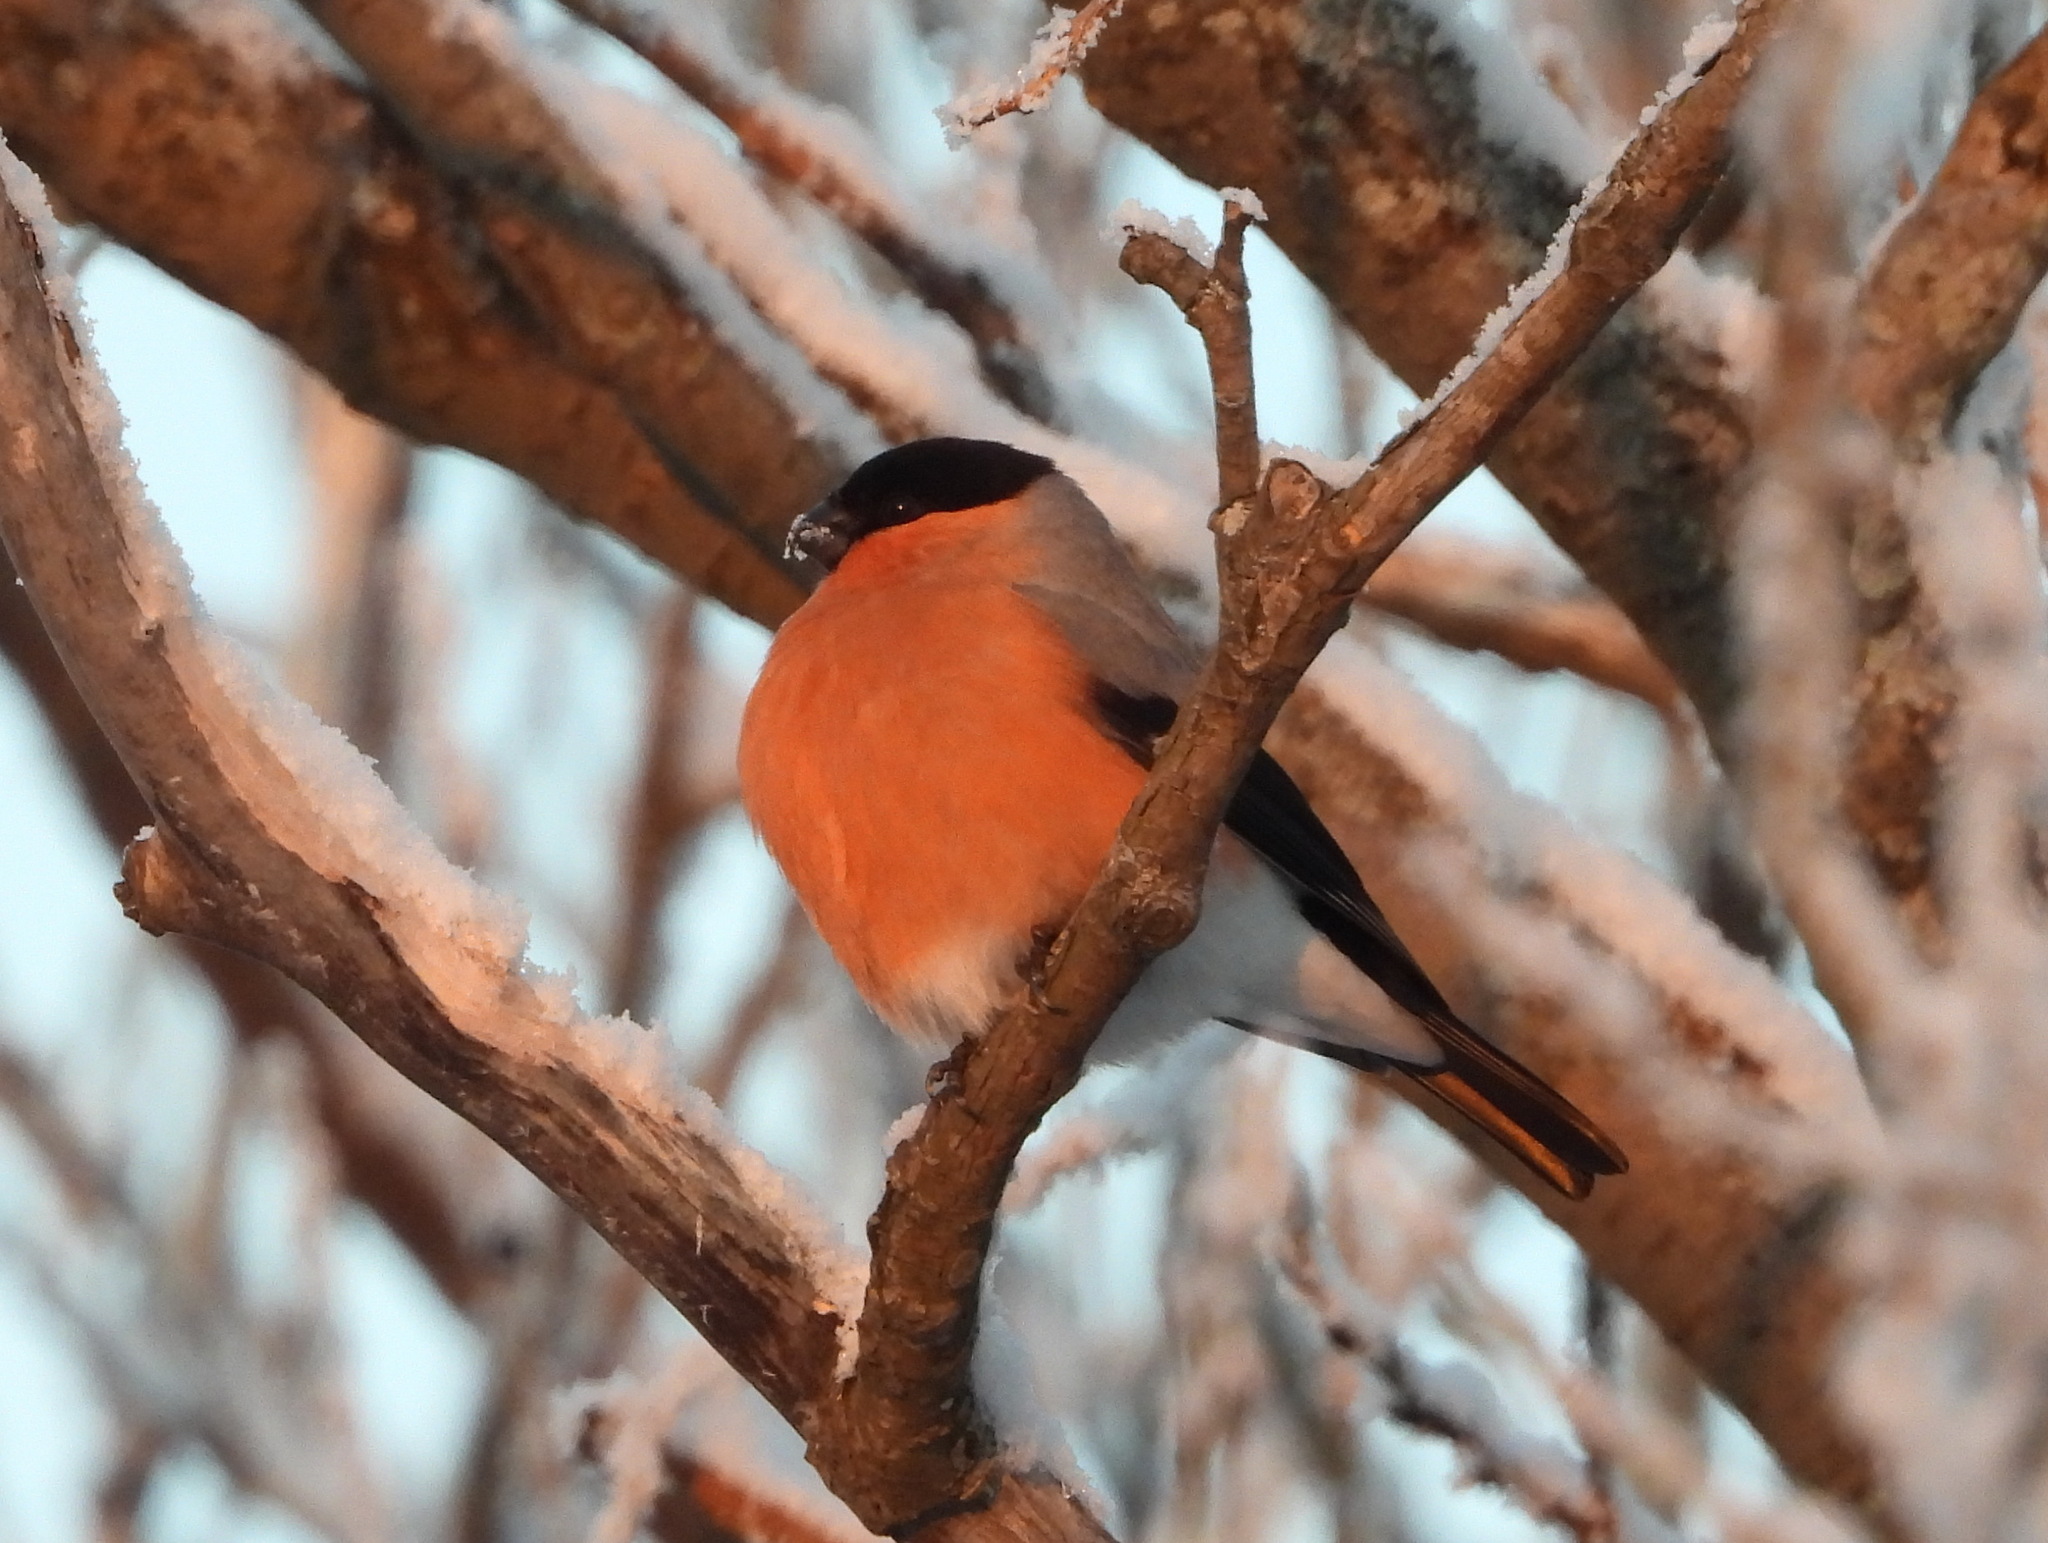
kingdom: Animalia
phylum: Chordata
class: Aves
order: Passeriformes
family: Fringillidae
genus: Pyrrhula
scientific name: Pyrrhula pyrrhula
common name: Eurasian bullfinch
